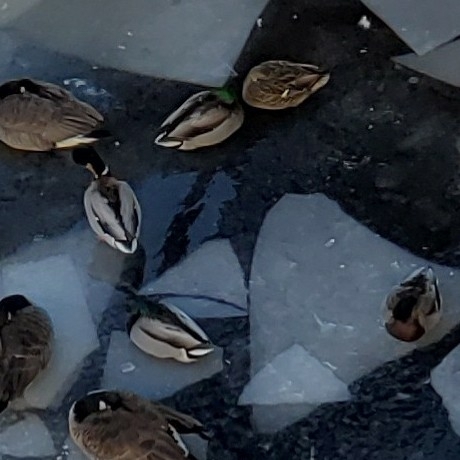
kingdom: Animalia
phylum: Chordata
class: Aves
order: Anseriformes
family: Anatidae
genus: Anas
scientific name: Anas platyrhynchos
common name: Mallard
